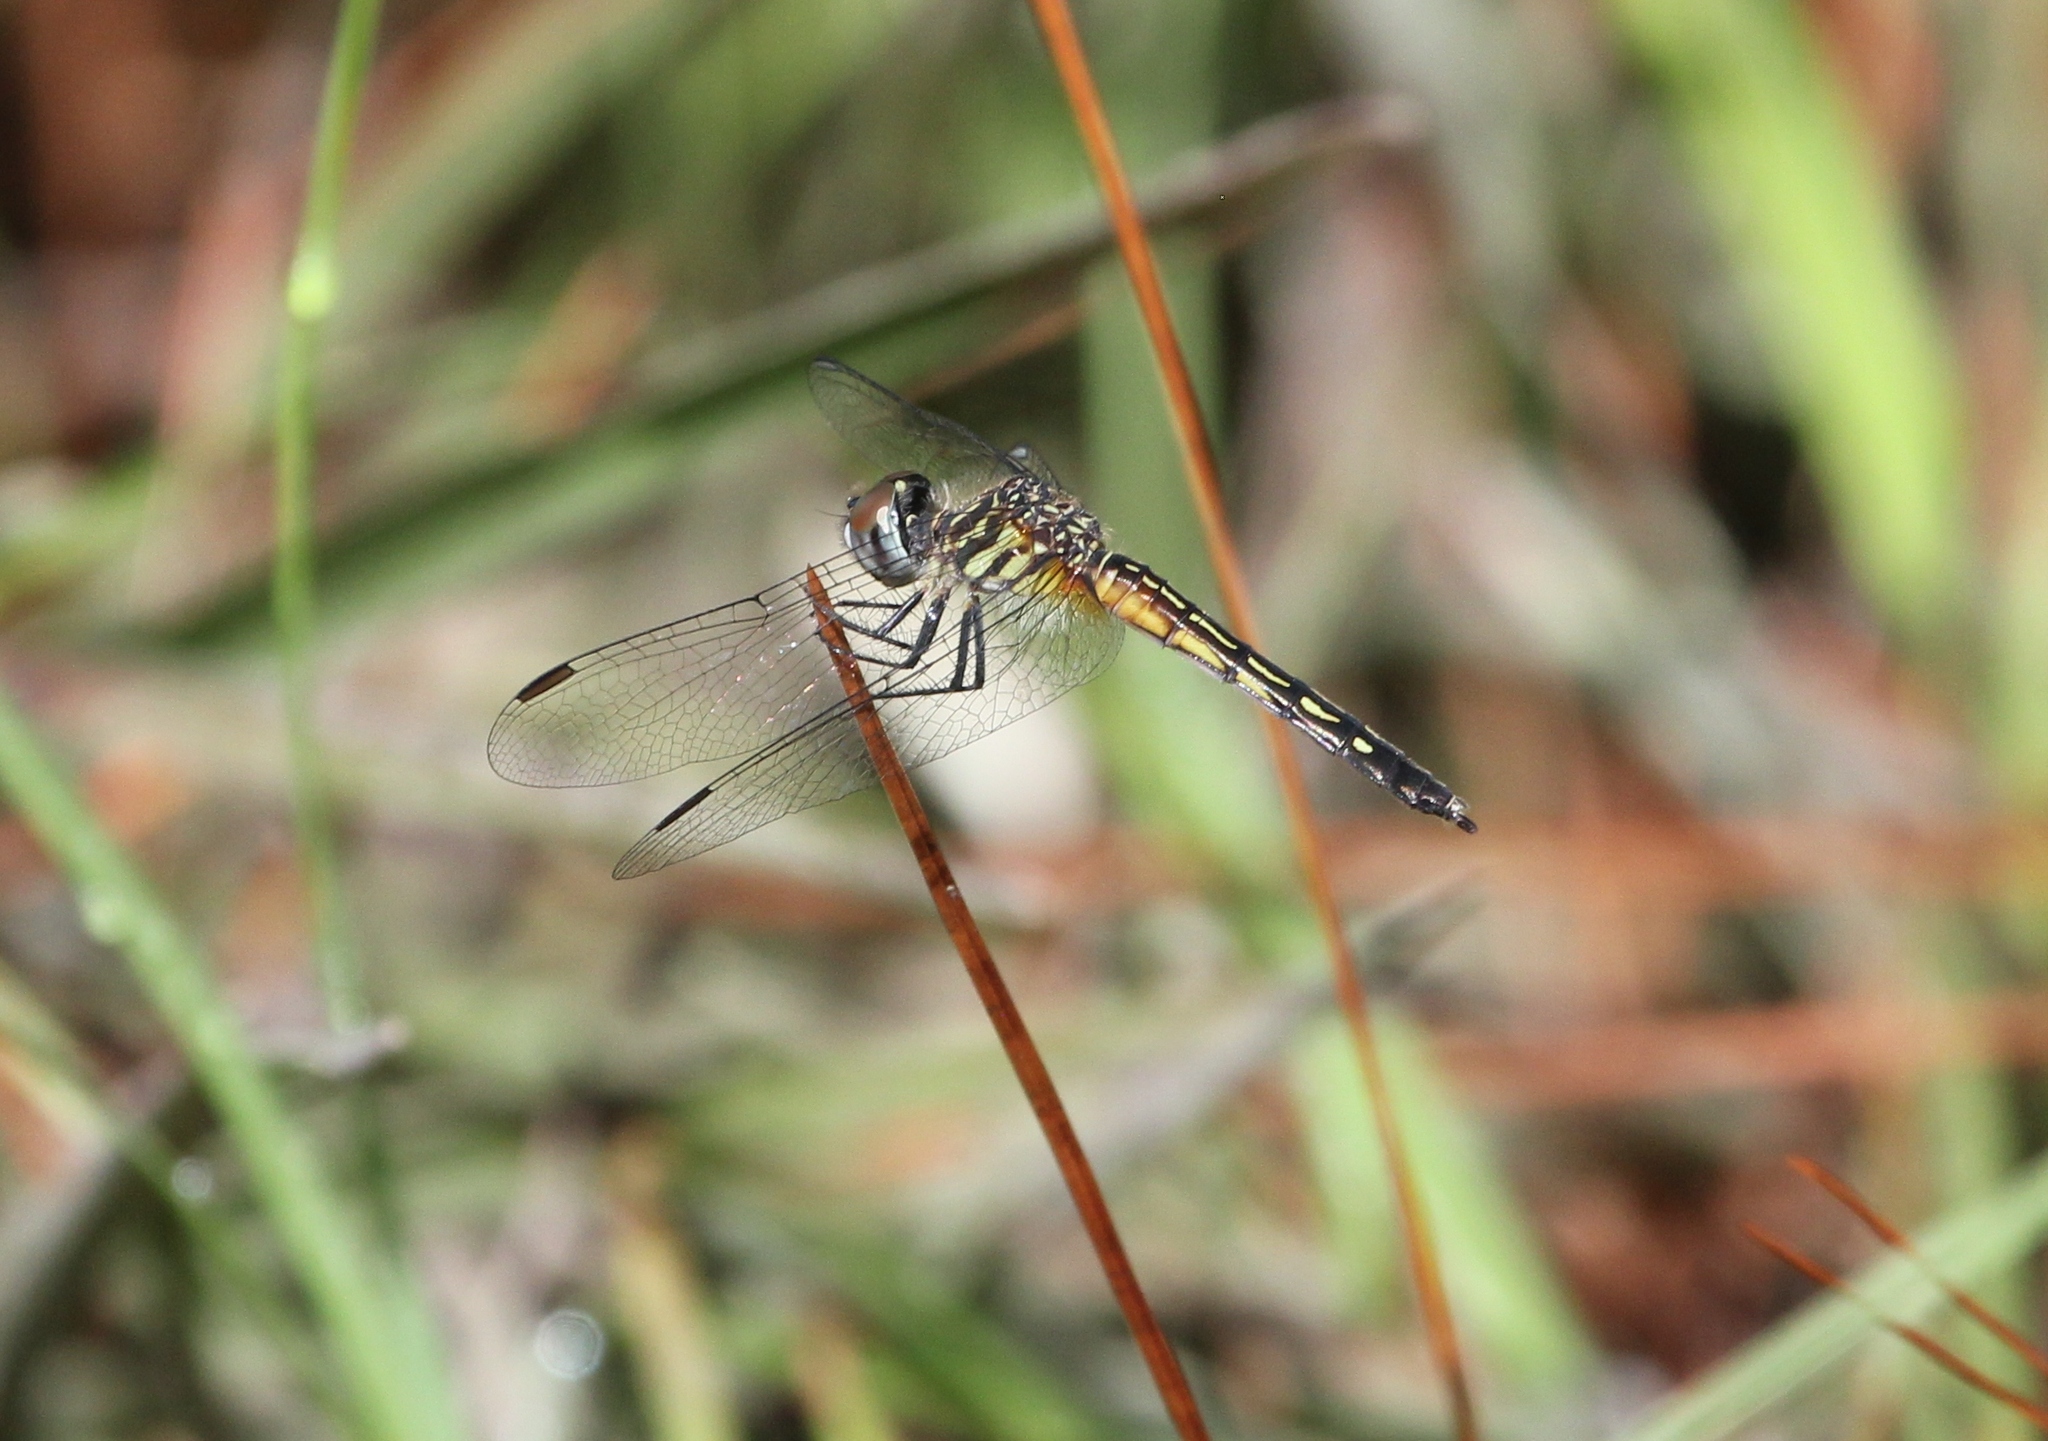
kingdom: Animalia
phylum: Arthropoda
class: Insecta
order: Odonata
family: Libellulidae
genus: Pachydiplax
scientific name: Pachydiplax longipennis
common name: Blue dasher
